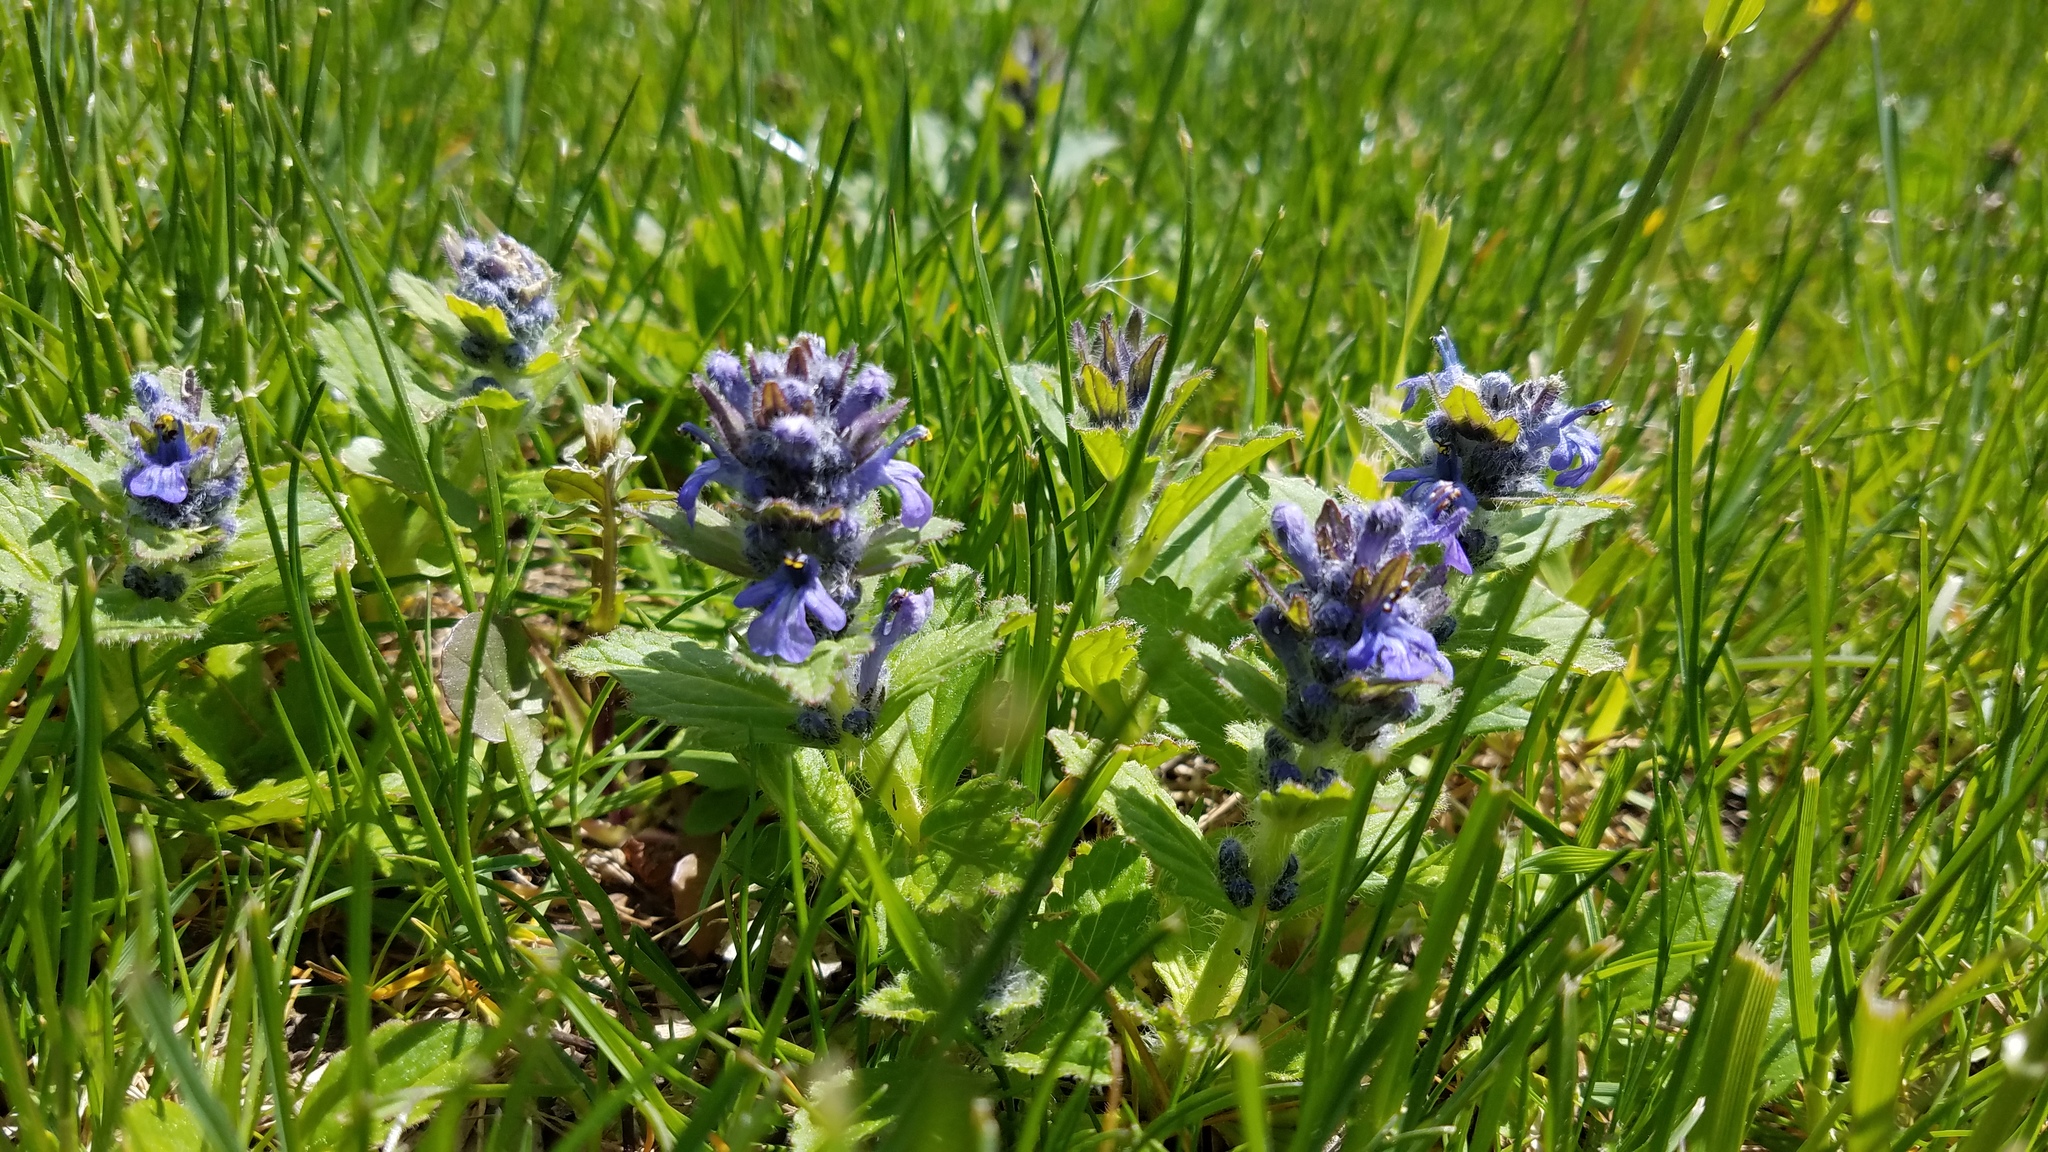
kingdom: Plantae
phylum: Tracheophyta
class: Magnoliopsida
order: Lamiales
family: Lamiaceae
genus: Ajuga
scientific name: Ajuga genevensis
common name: Blue bugle
